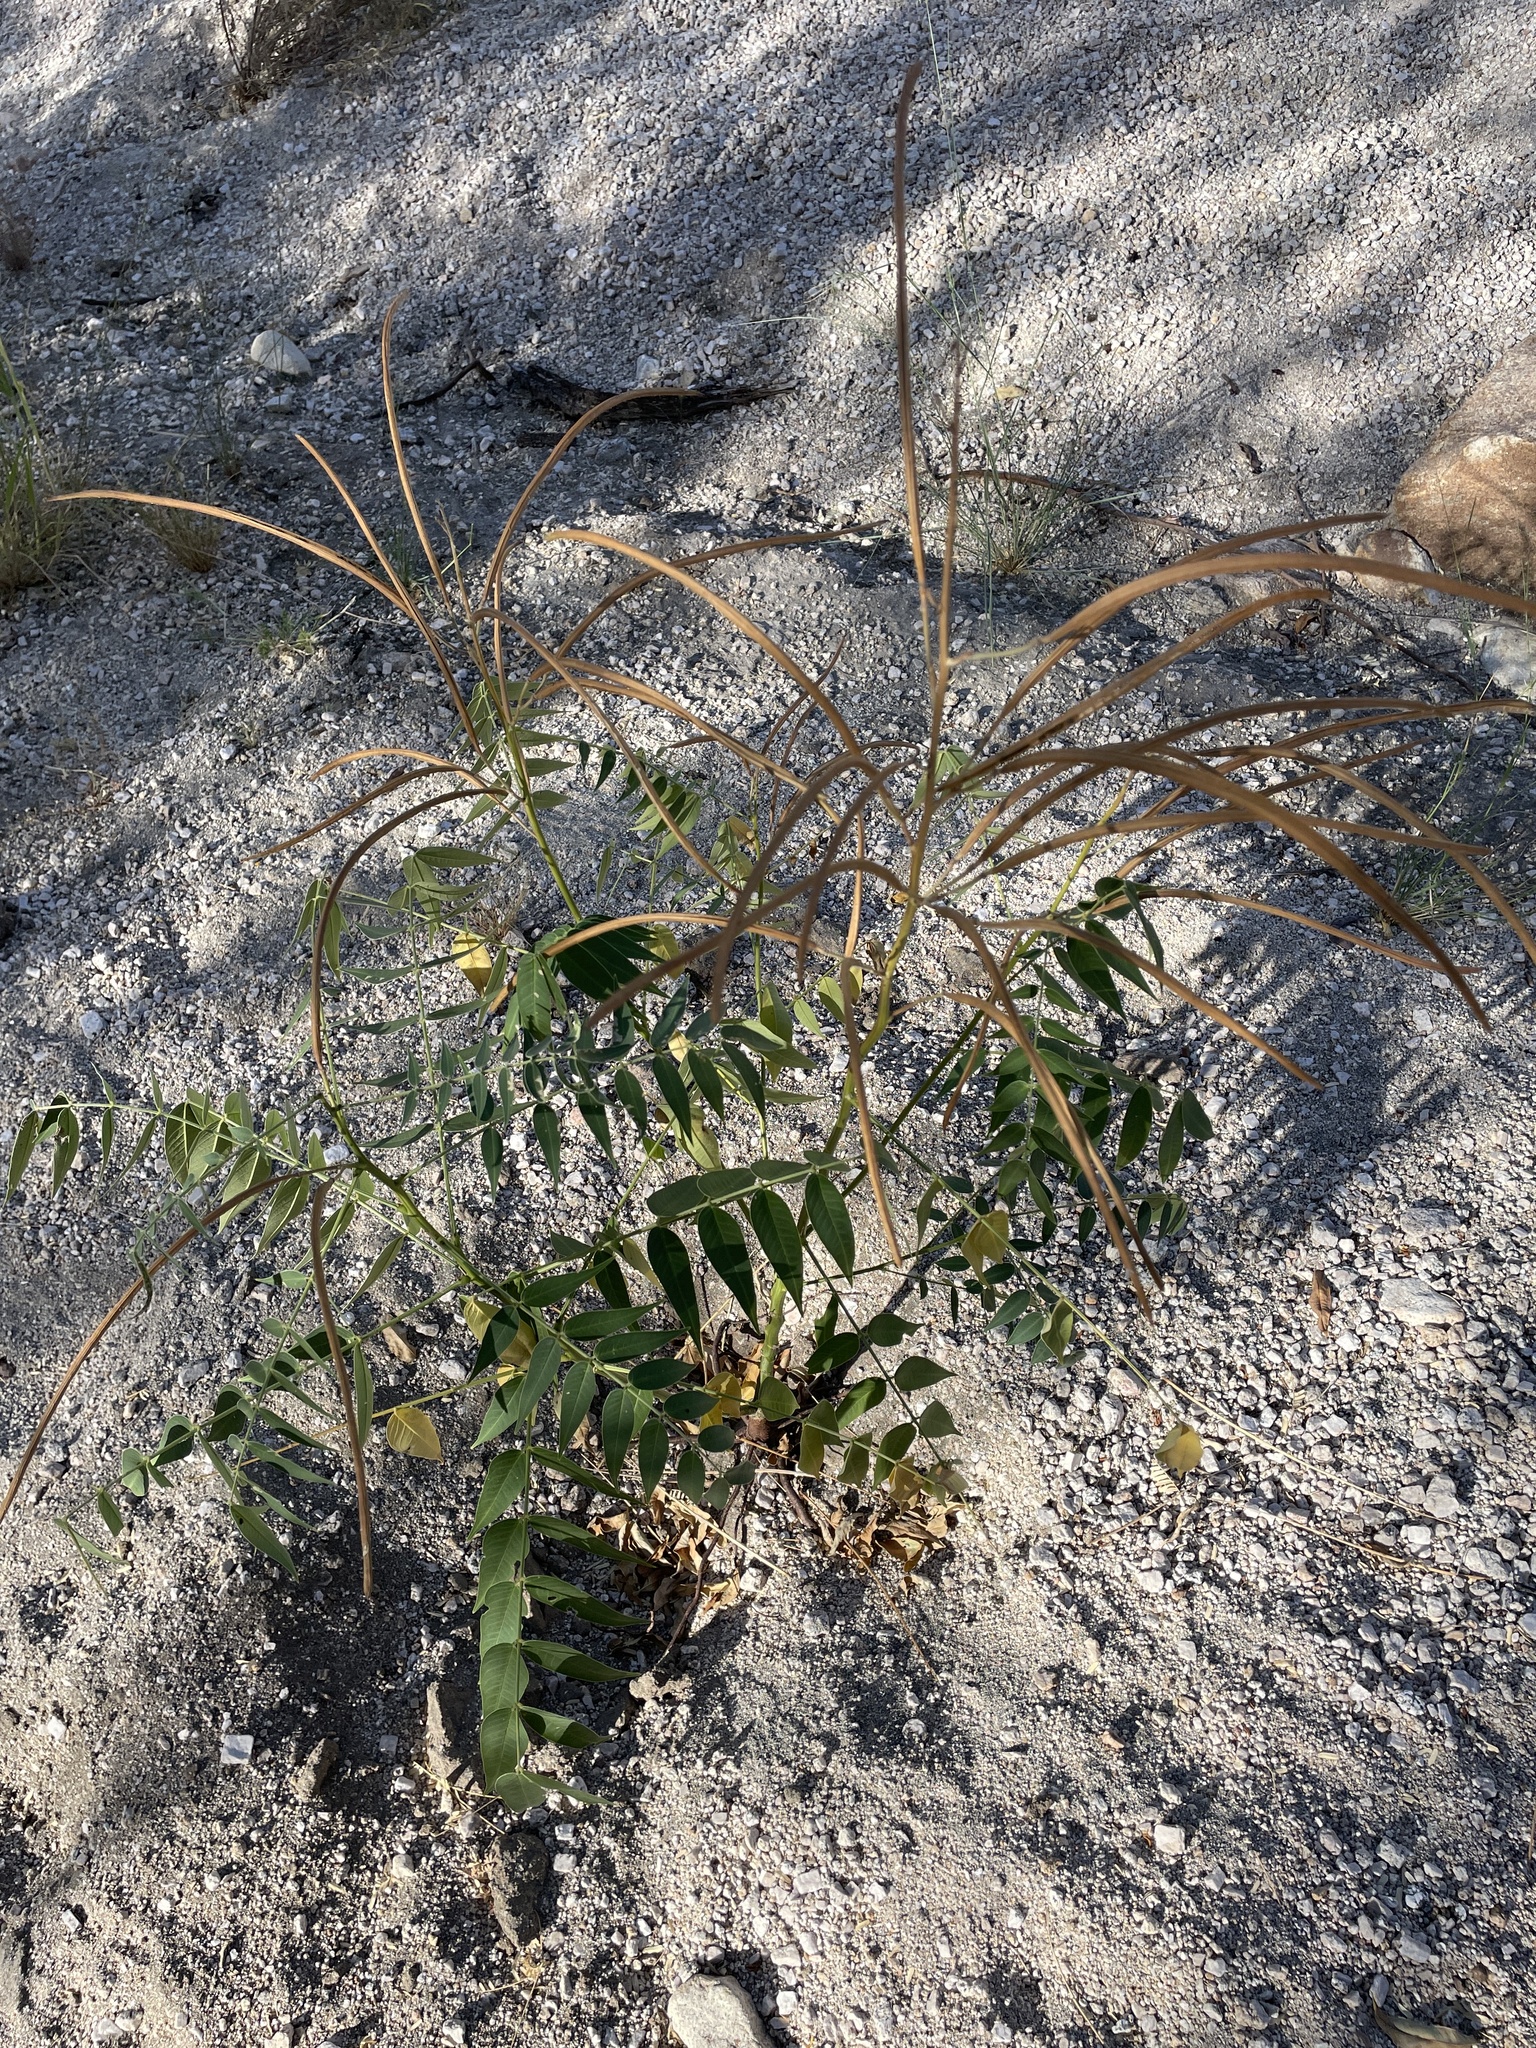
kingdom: Plantae
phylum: Tracheophyta
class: Magnoliopsida
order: Fabales
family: Fabaceae
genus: Senna
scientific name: Senna hirsuta
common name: Woolly senna
